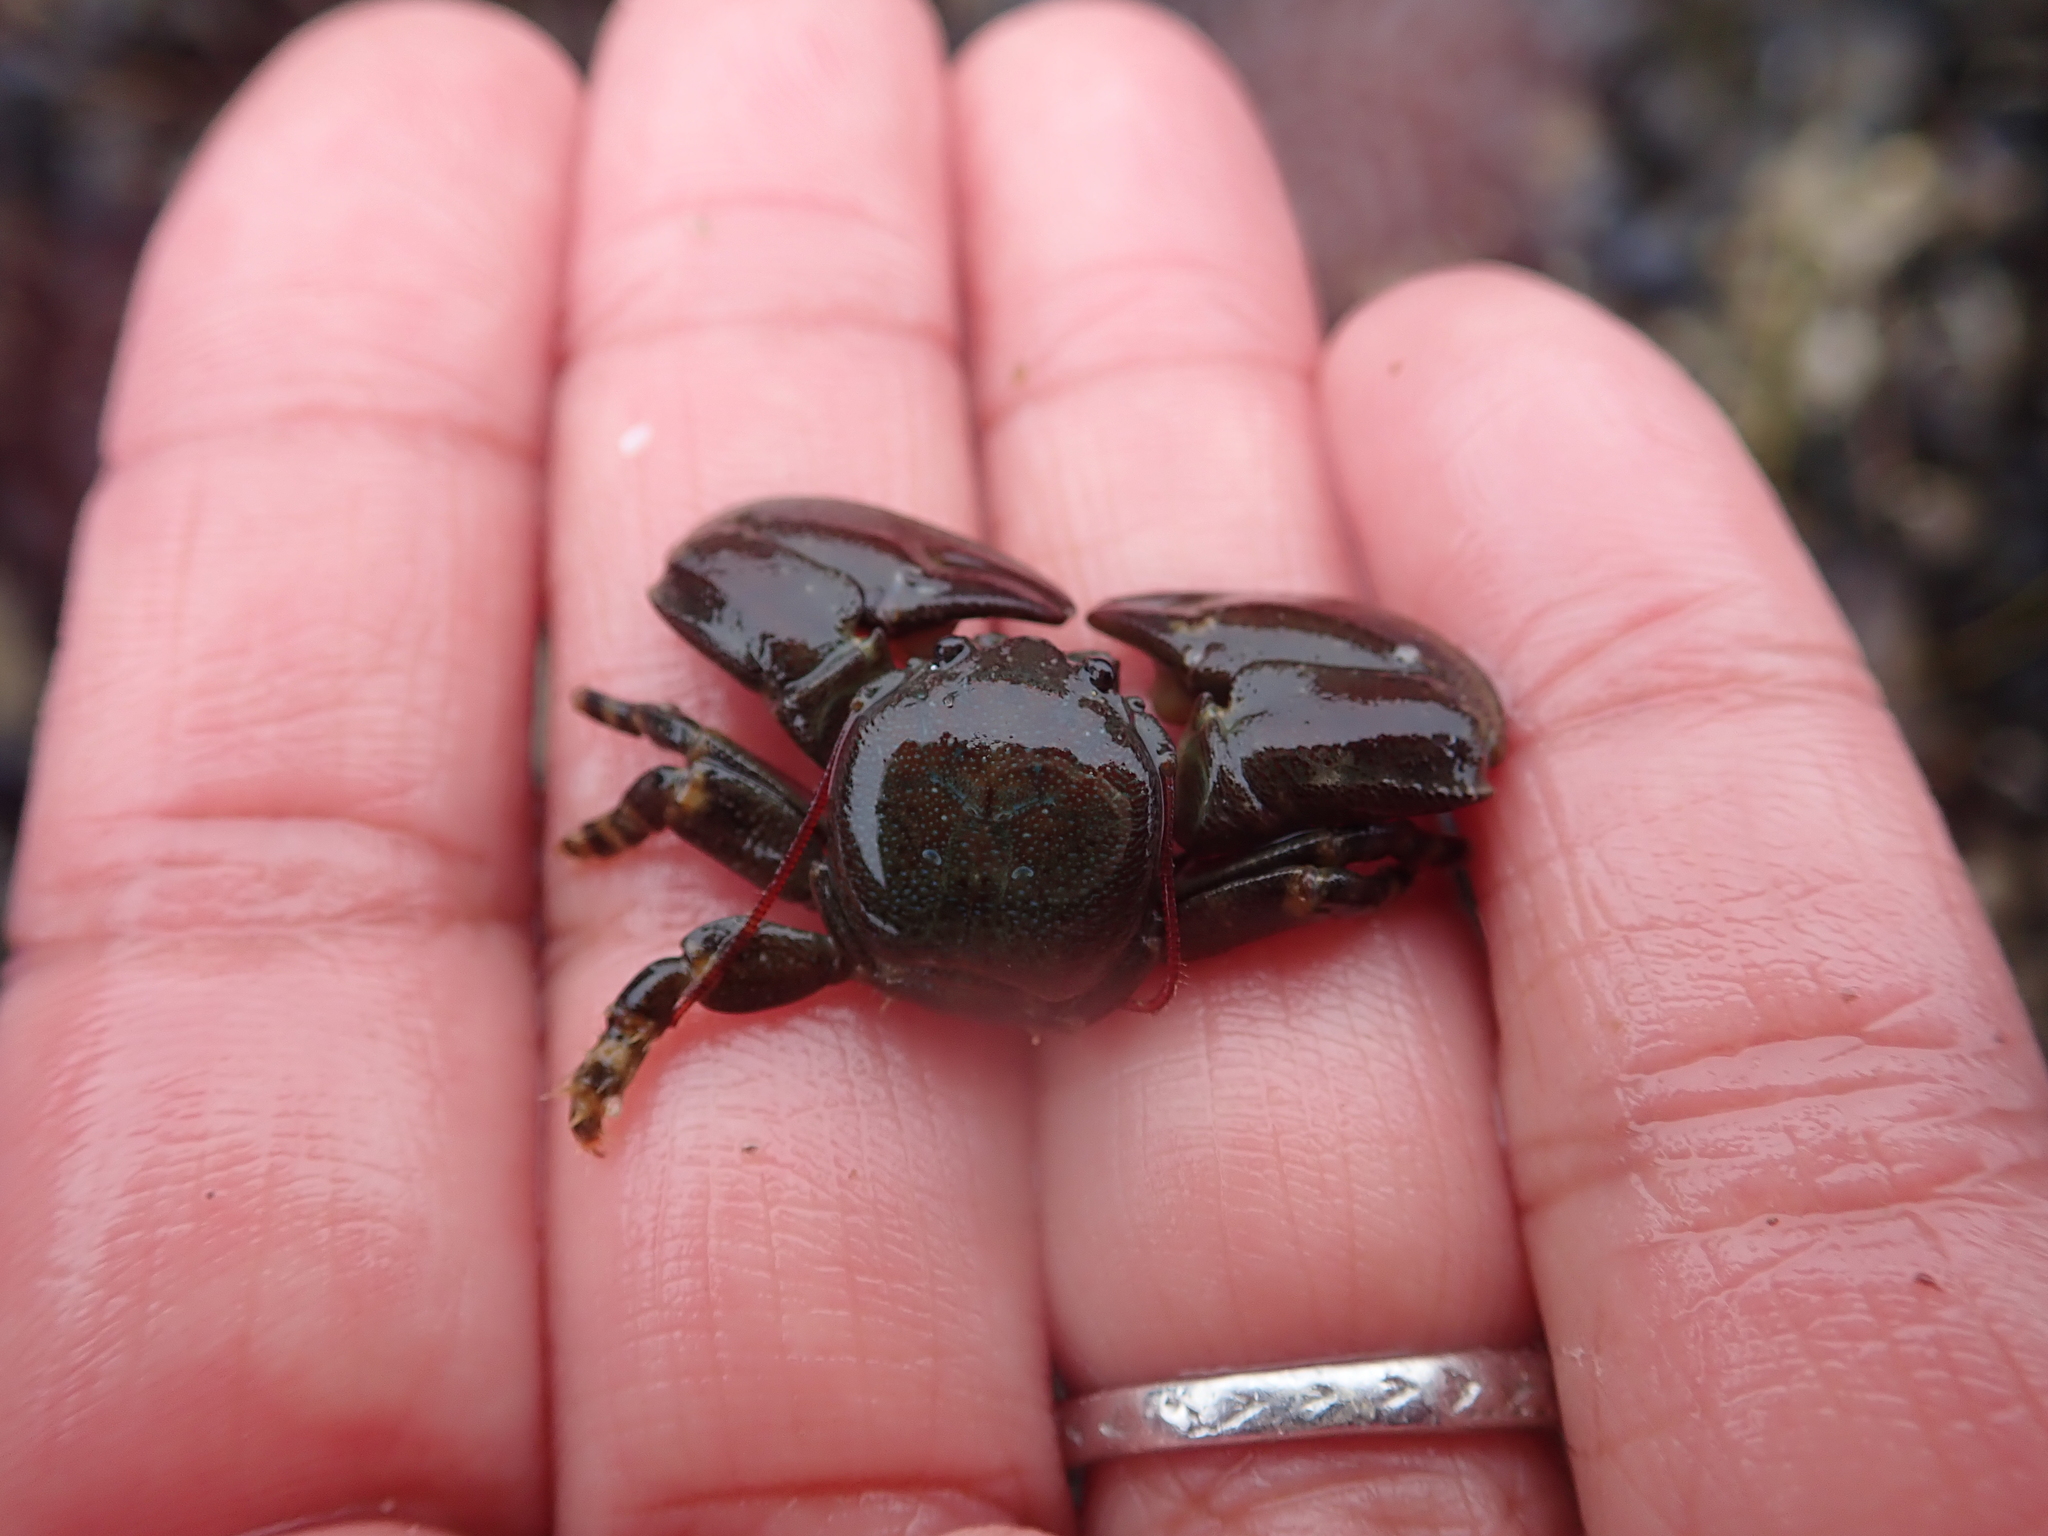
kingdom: Animalia
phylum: Arthropoda
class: Malacostraca
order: Decapoda
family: Porcellanidae
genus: Petrolisthes
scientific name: Petrolisthes cinctipes
